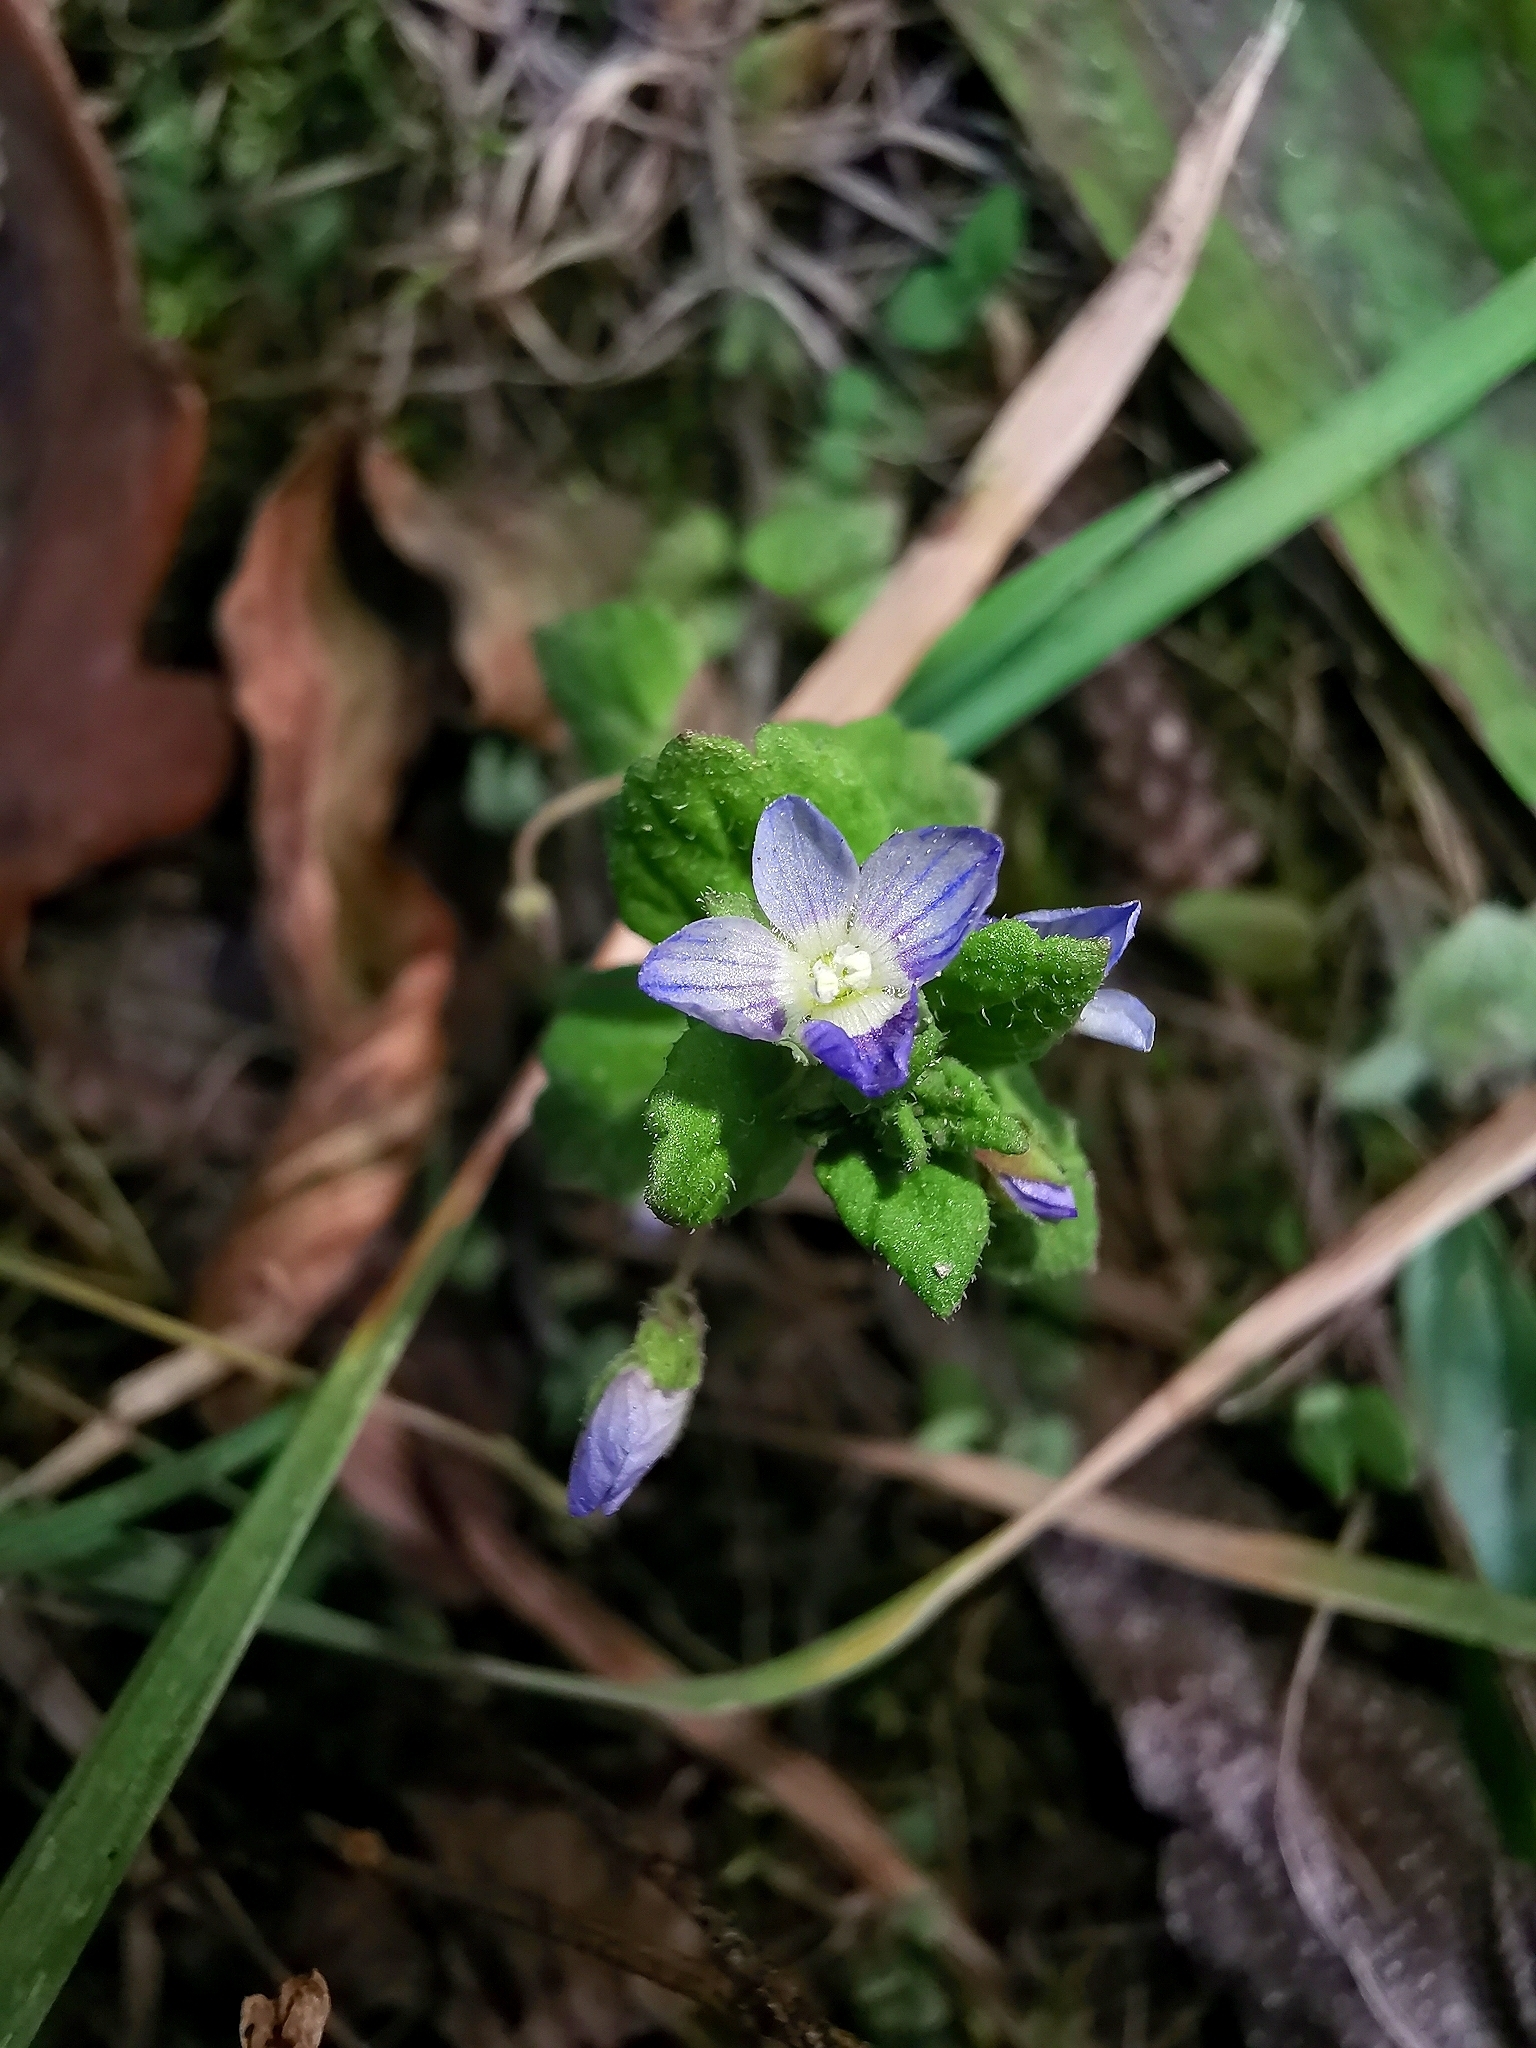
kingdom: Plantae
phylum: Tracheophyta
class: Magnoliopsida
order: Lamiales
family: Plantaginaceae
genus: Veronica
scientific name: Veronica persica
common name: Common field-speedwell
